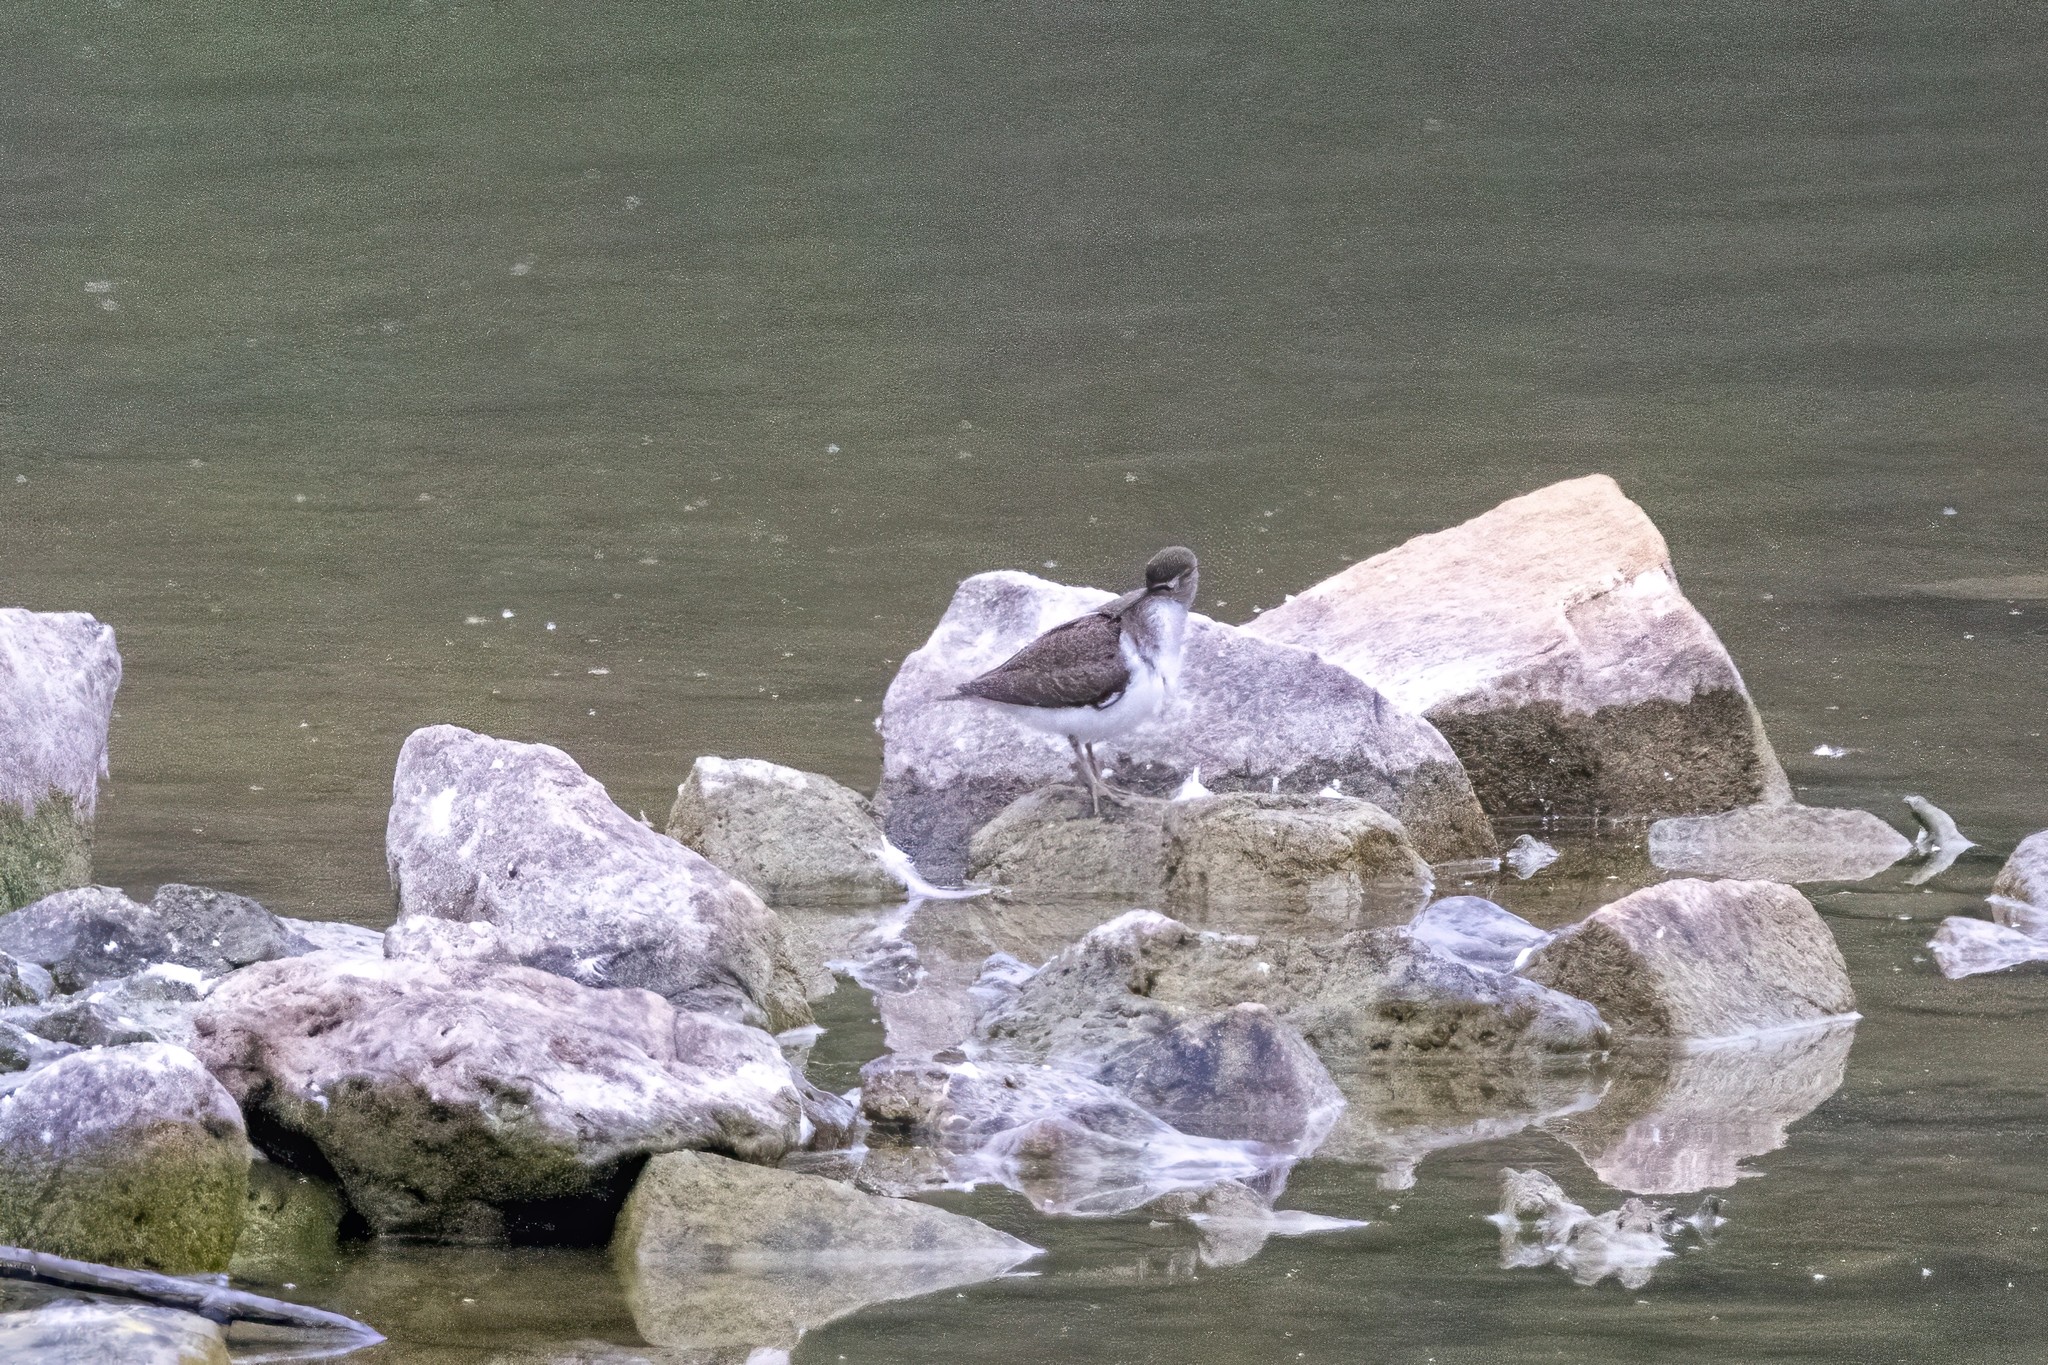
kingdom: Animalia
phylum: Chordata
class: Aves
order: Charadriiformes
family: Scolopacidae
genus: Actitis
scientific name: Actitis hypoleucos
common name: Common sandpiper
